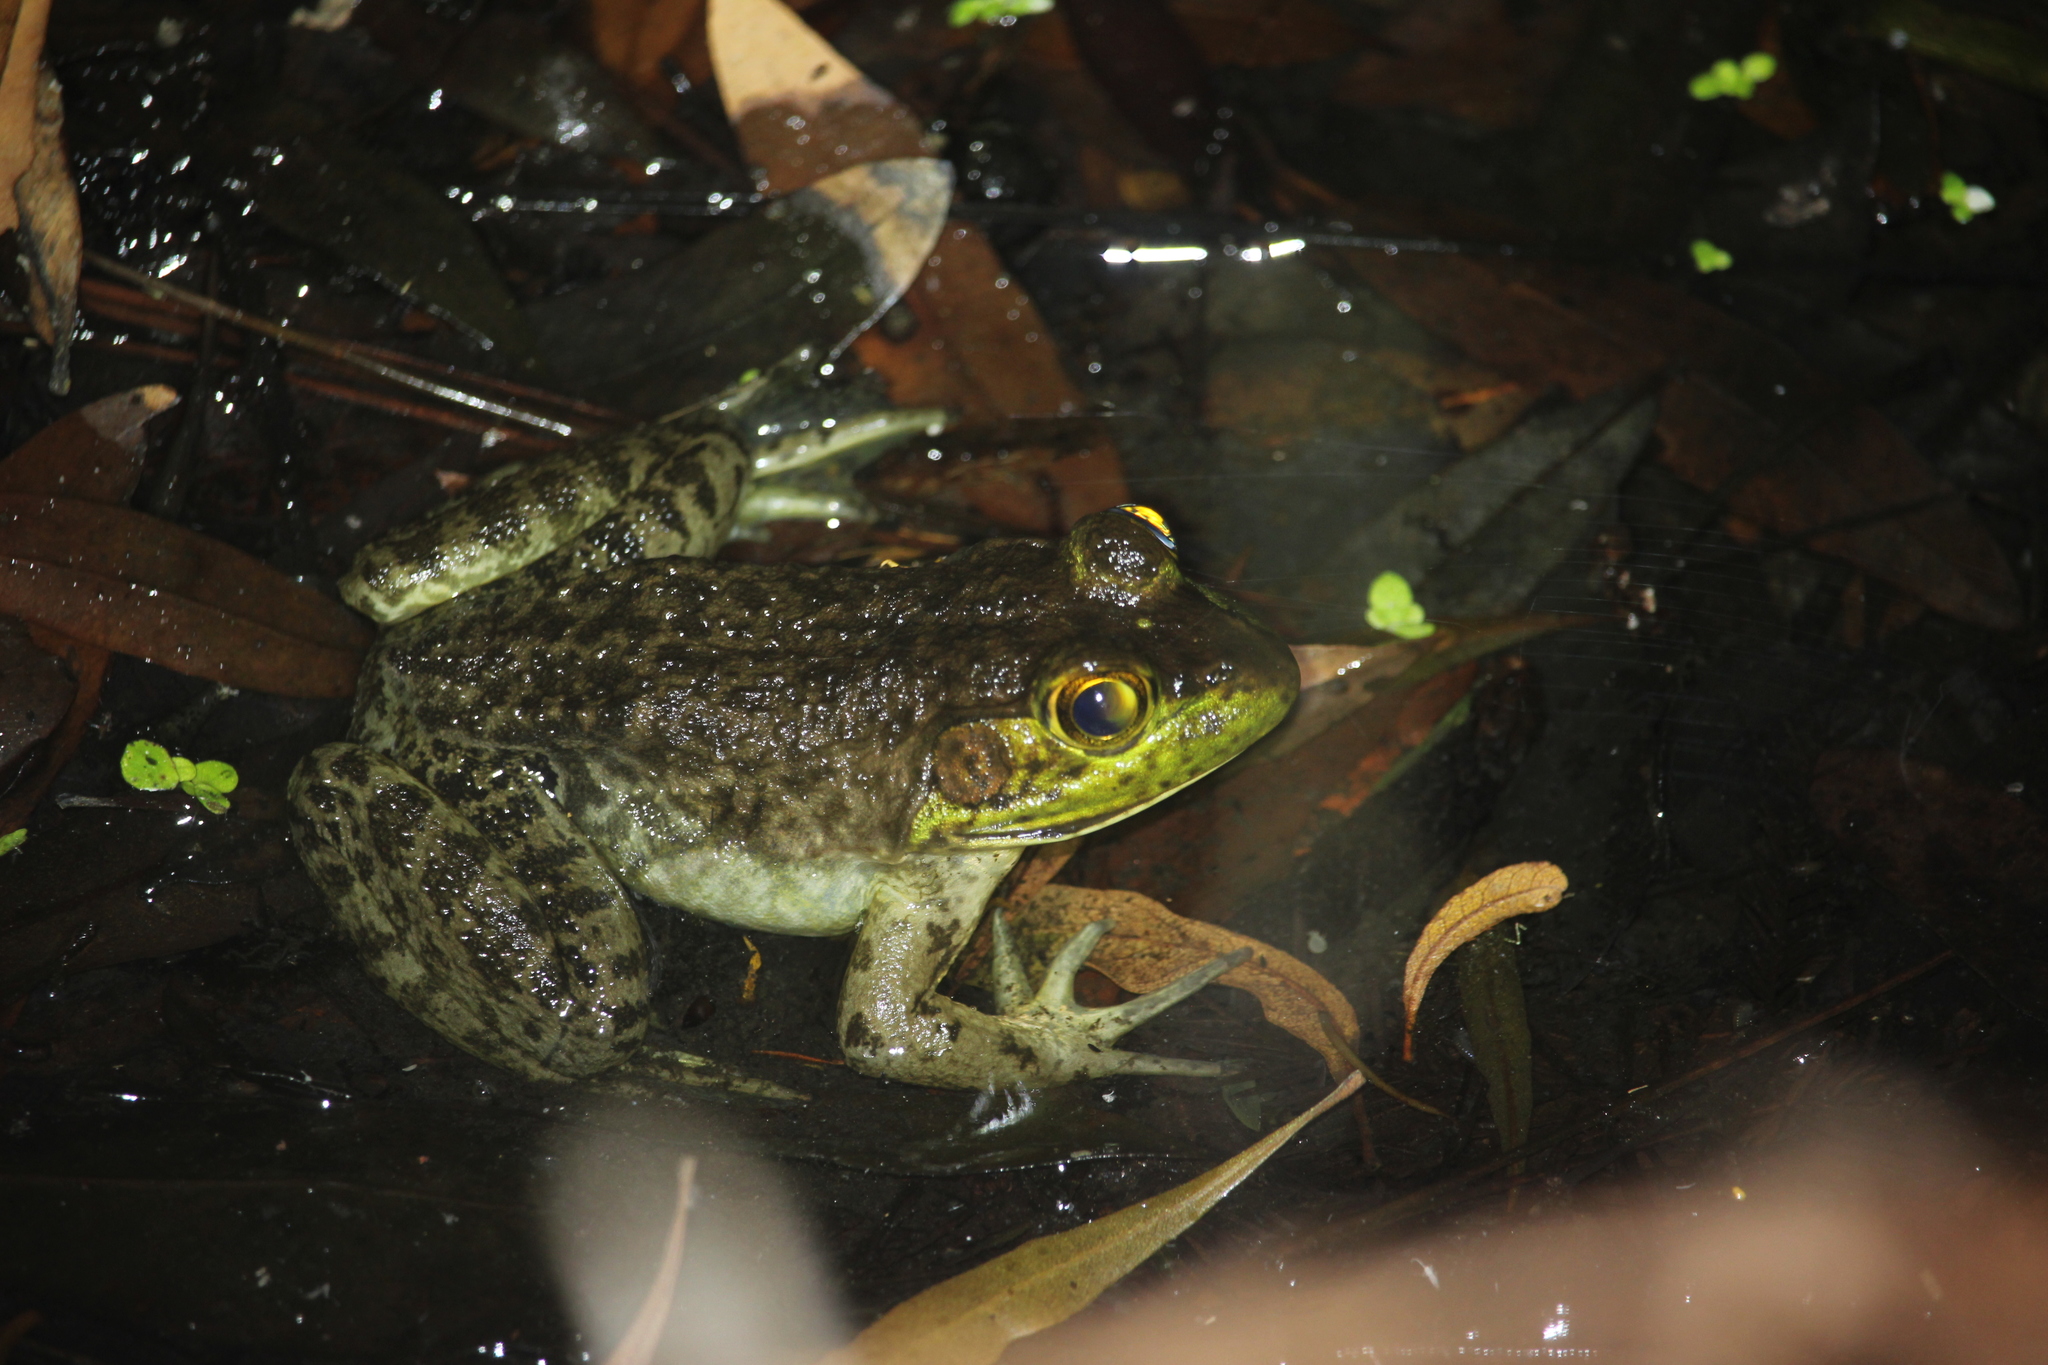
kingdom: Animalia
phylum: Chordata
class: Amphibia
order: Anura
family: Ranidae
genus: Lithobates
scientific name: Lithobates catesbeianus
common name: American bullfrog
